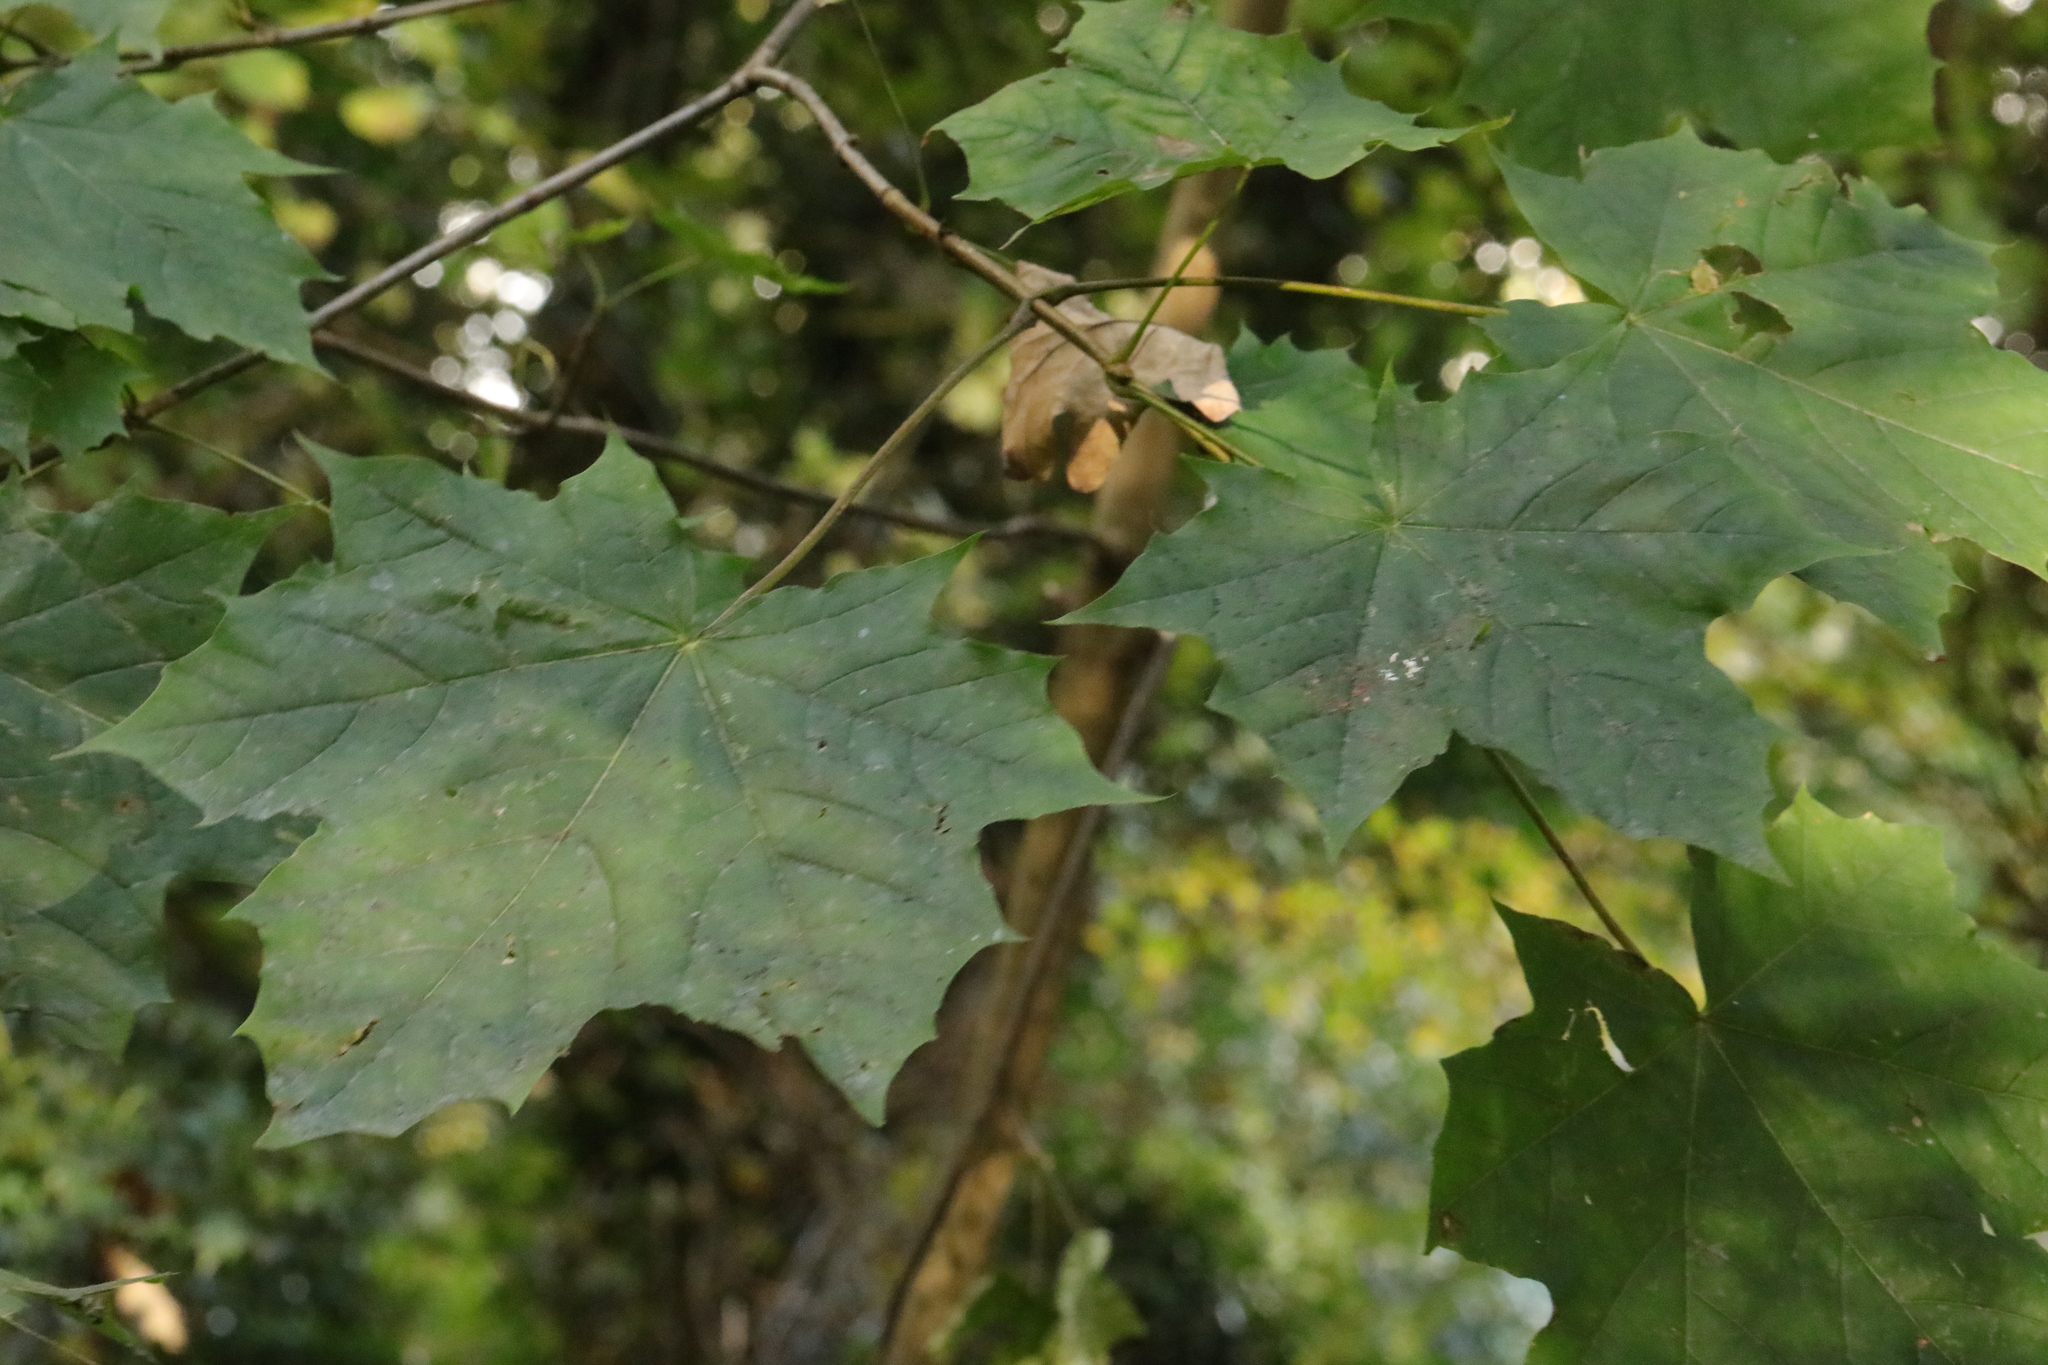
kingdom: Plantae
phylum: Tracheophyta
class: Magnoliopsida
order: Sapindales
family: Sapindaceae
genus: Acer
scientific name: Acer platanoides
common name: Norway maple
